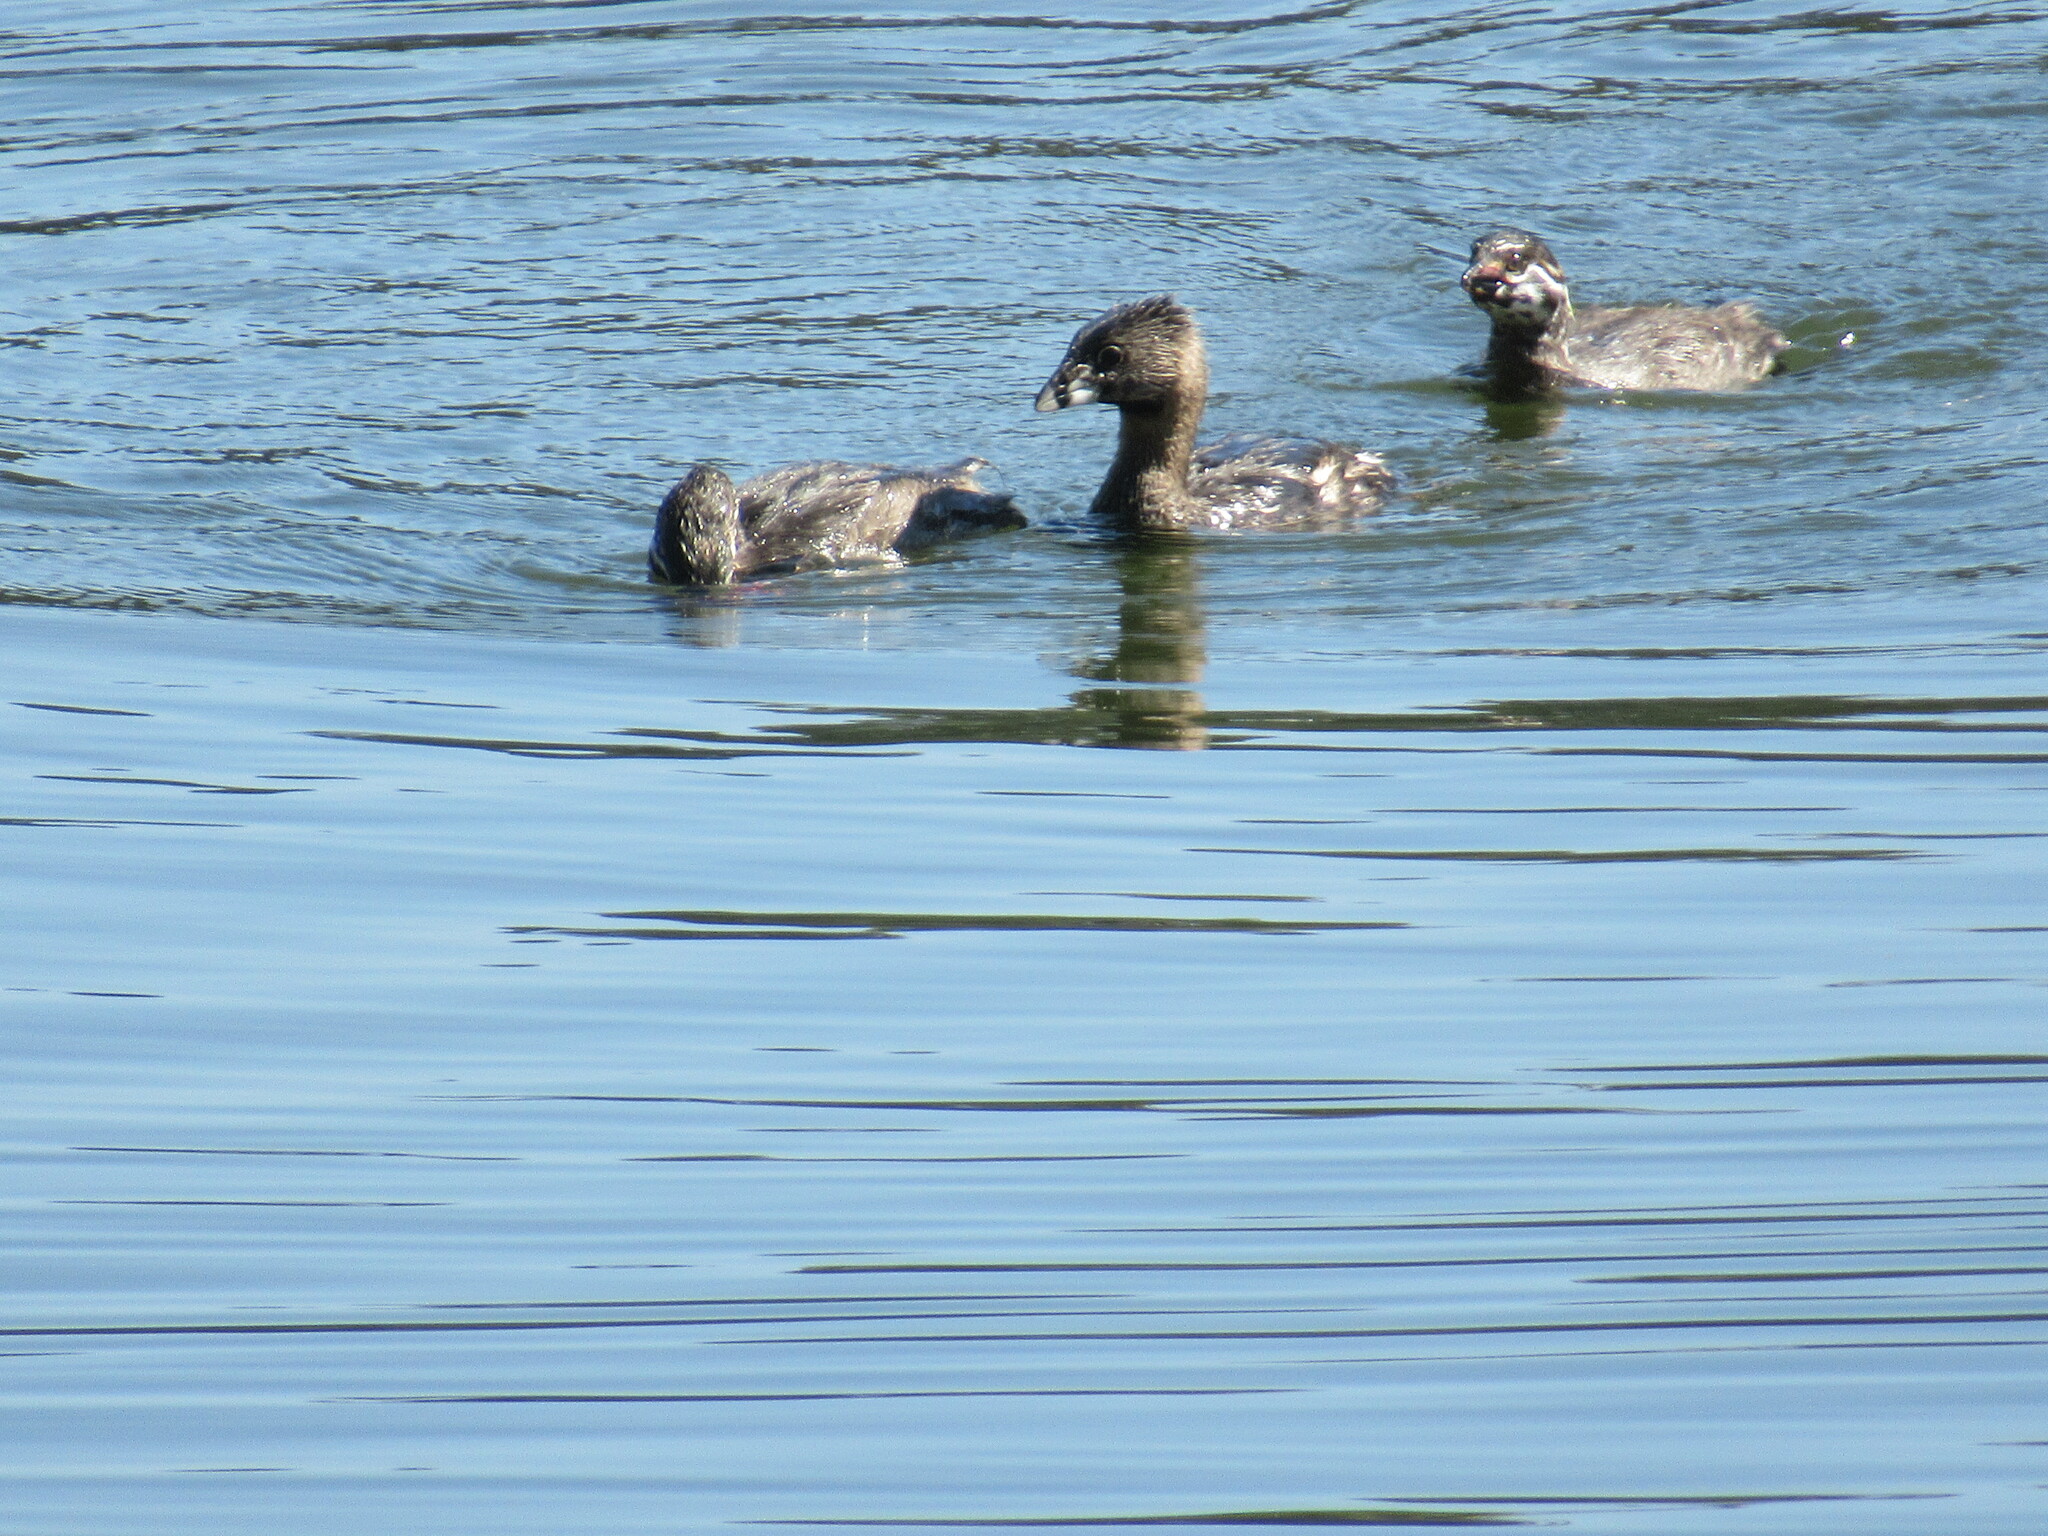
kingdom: Animalia
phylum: Chordata
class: Aves
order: Podicipediformes
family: Podicipedidae
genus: Podilymbus
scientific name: Podilymbus podiceps
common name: Pied-billed grebe
